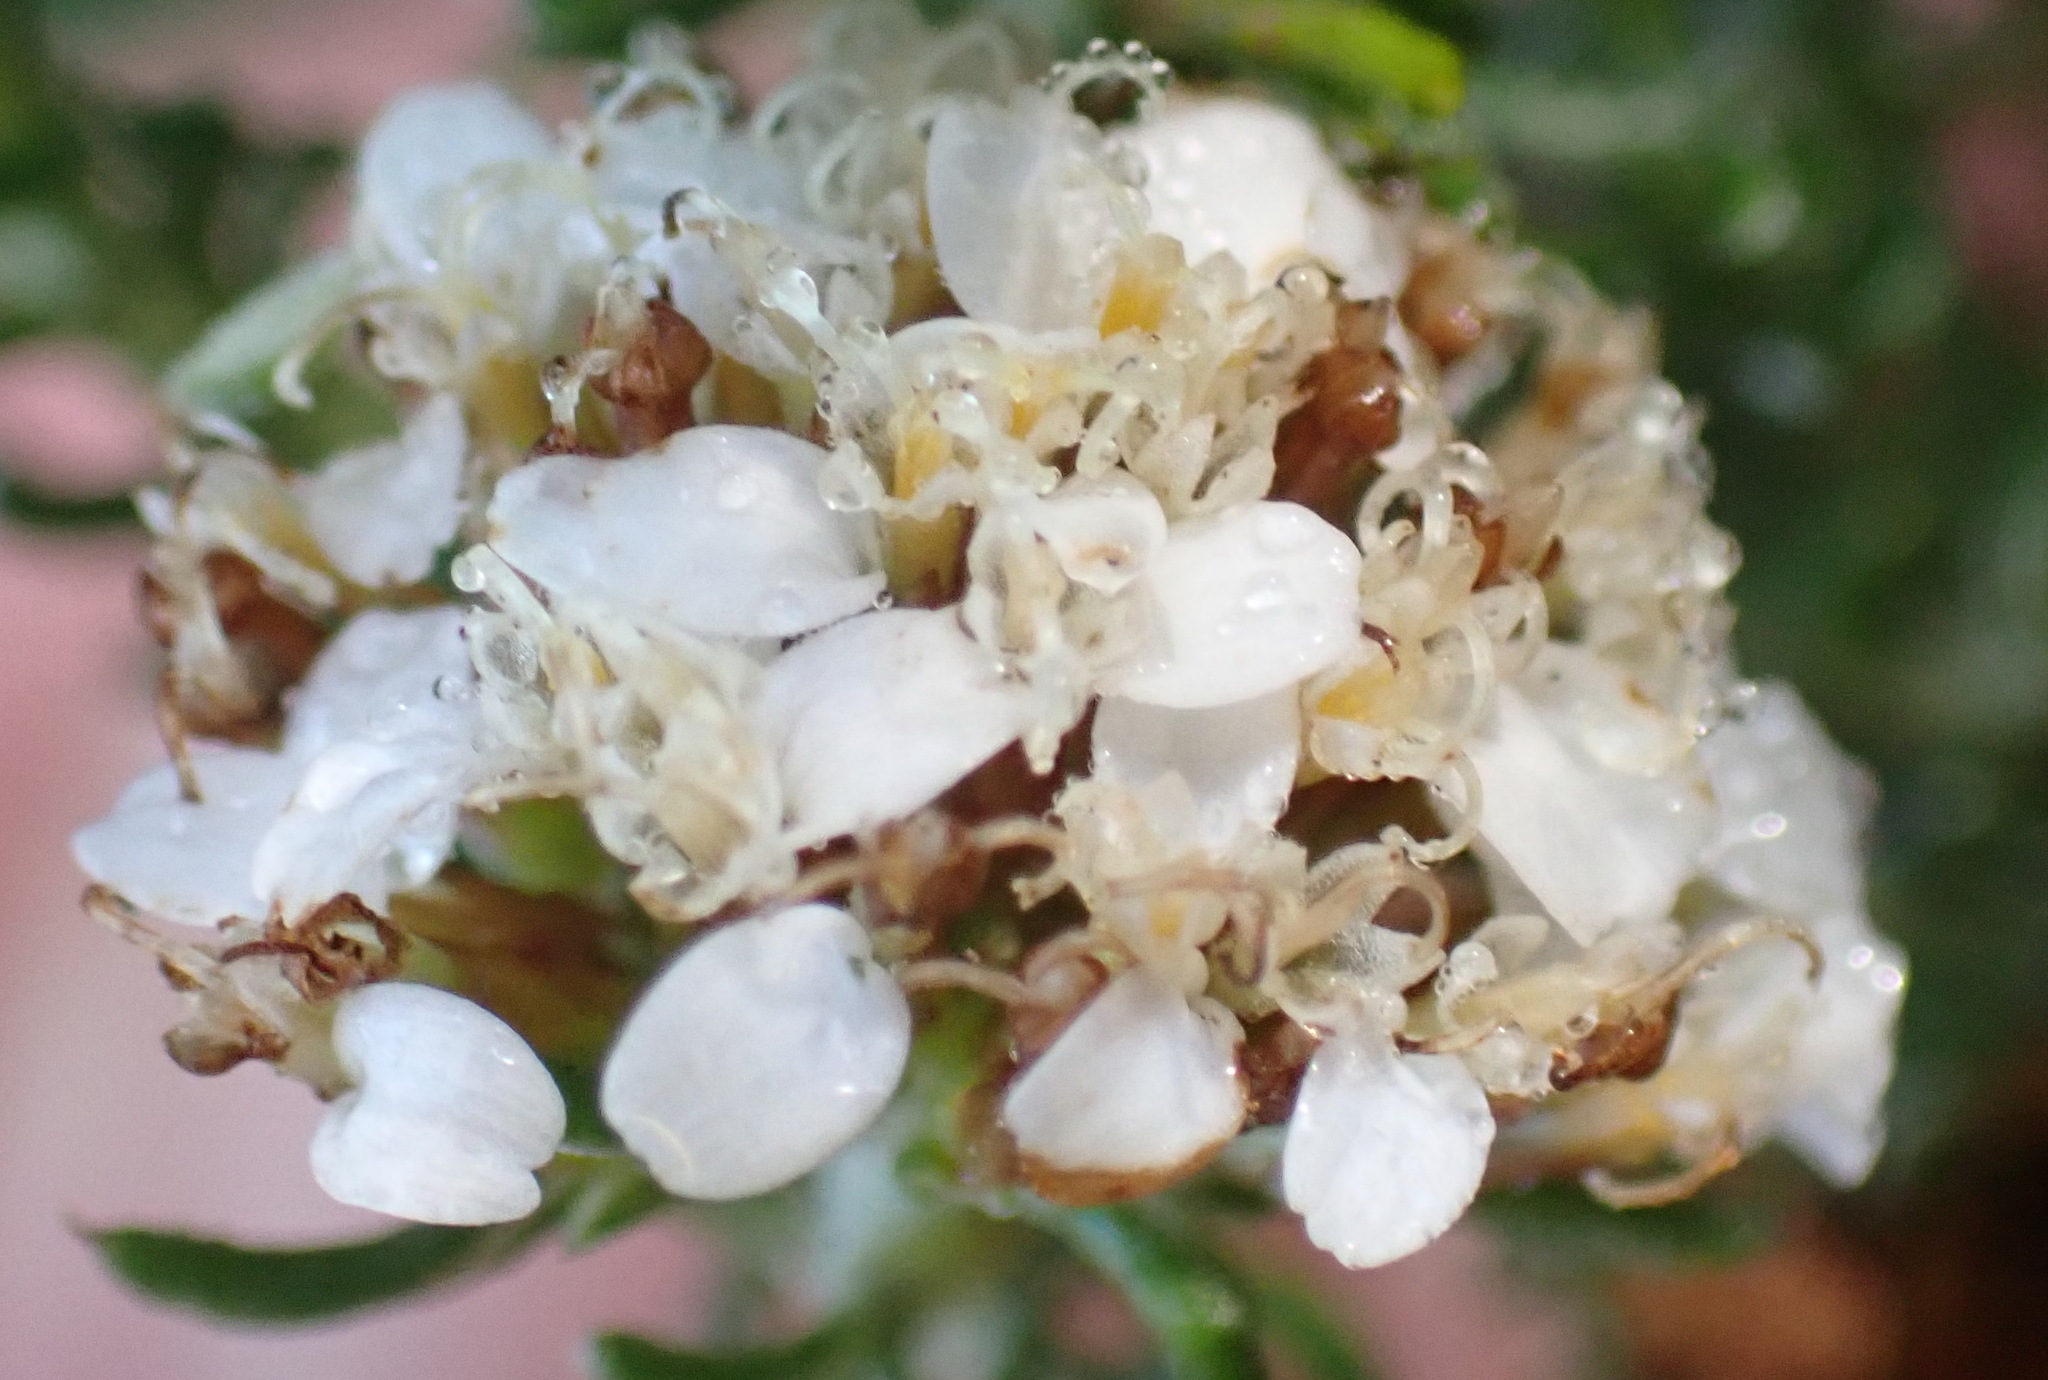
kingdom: Plantae
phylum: Tracheophyta
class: Magnoliopsida
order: Asterales
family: Asteraceae
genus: Disparago
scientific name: Disparago anomala
